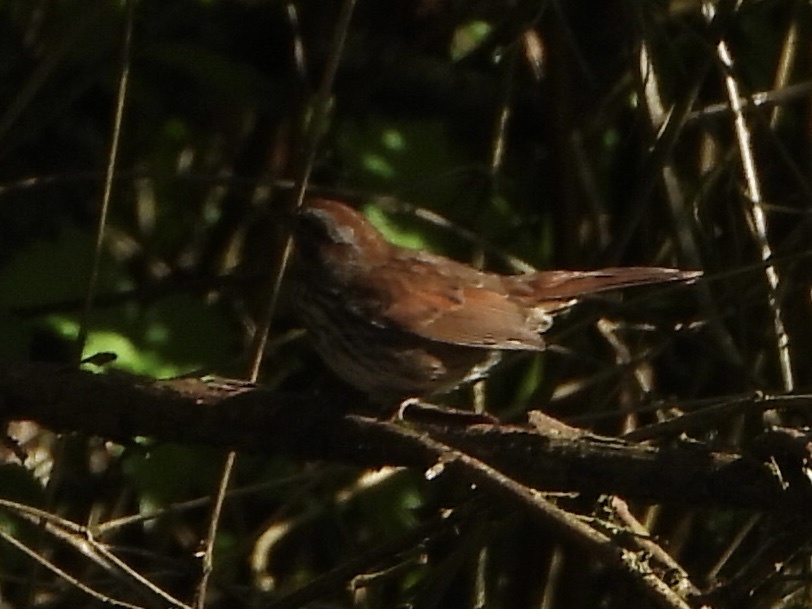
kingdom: Animalia
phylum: Chordata
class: Aves
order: Passeriformes
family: Passerellidae
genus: Melospiza
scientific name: Melospiza melodia
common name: Song sparrow
